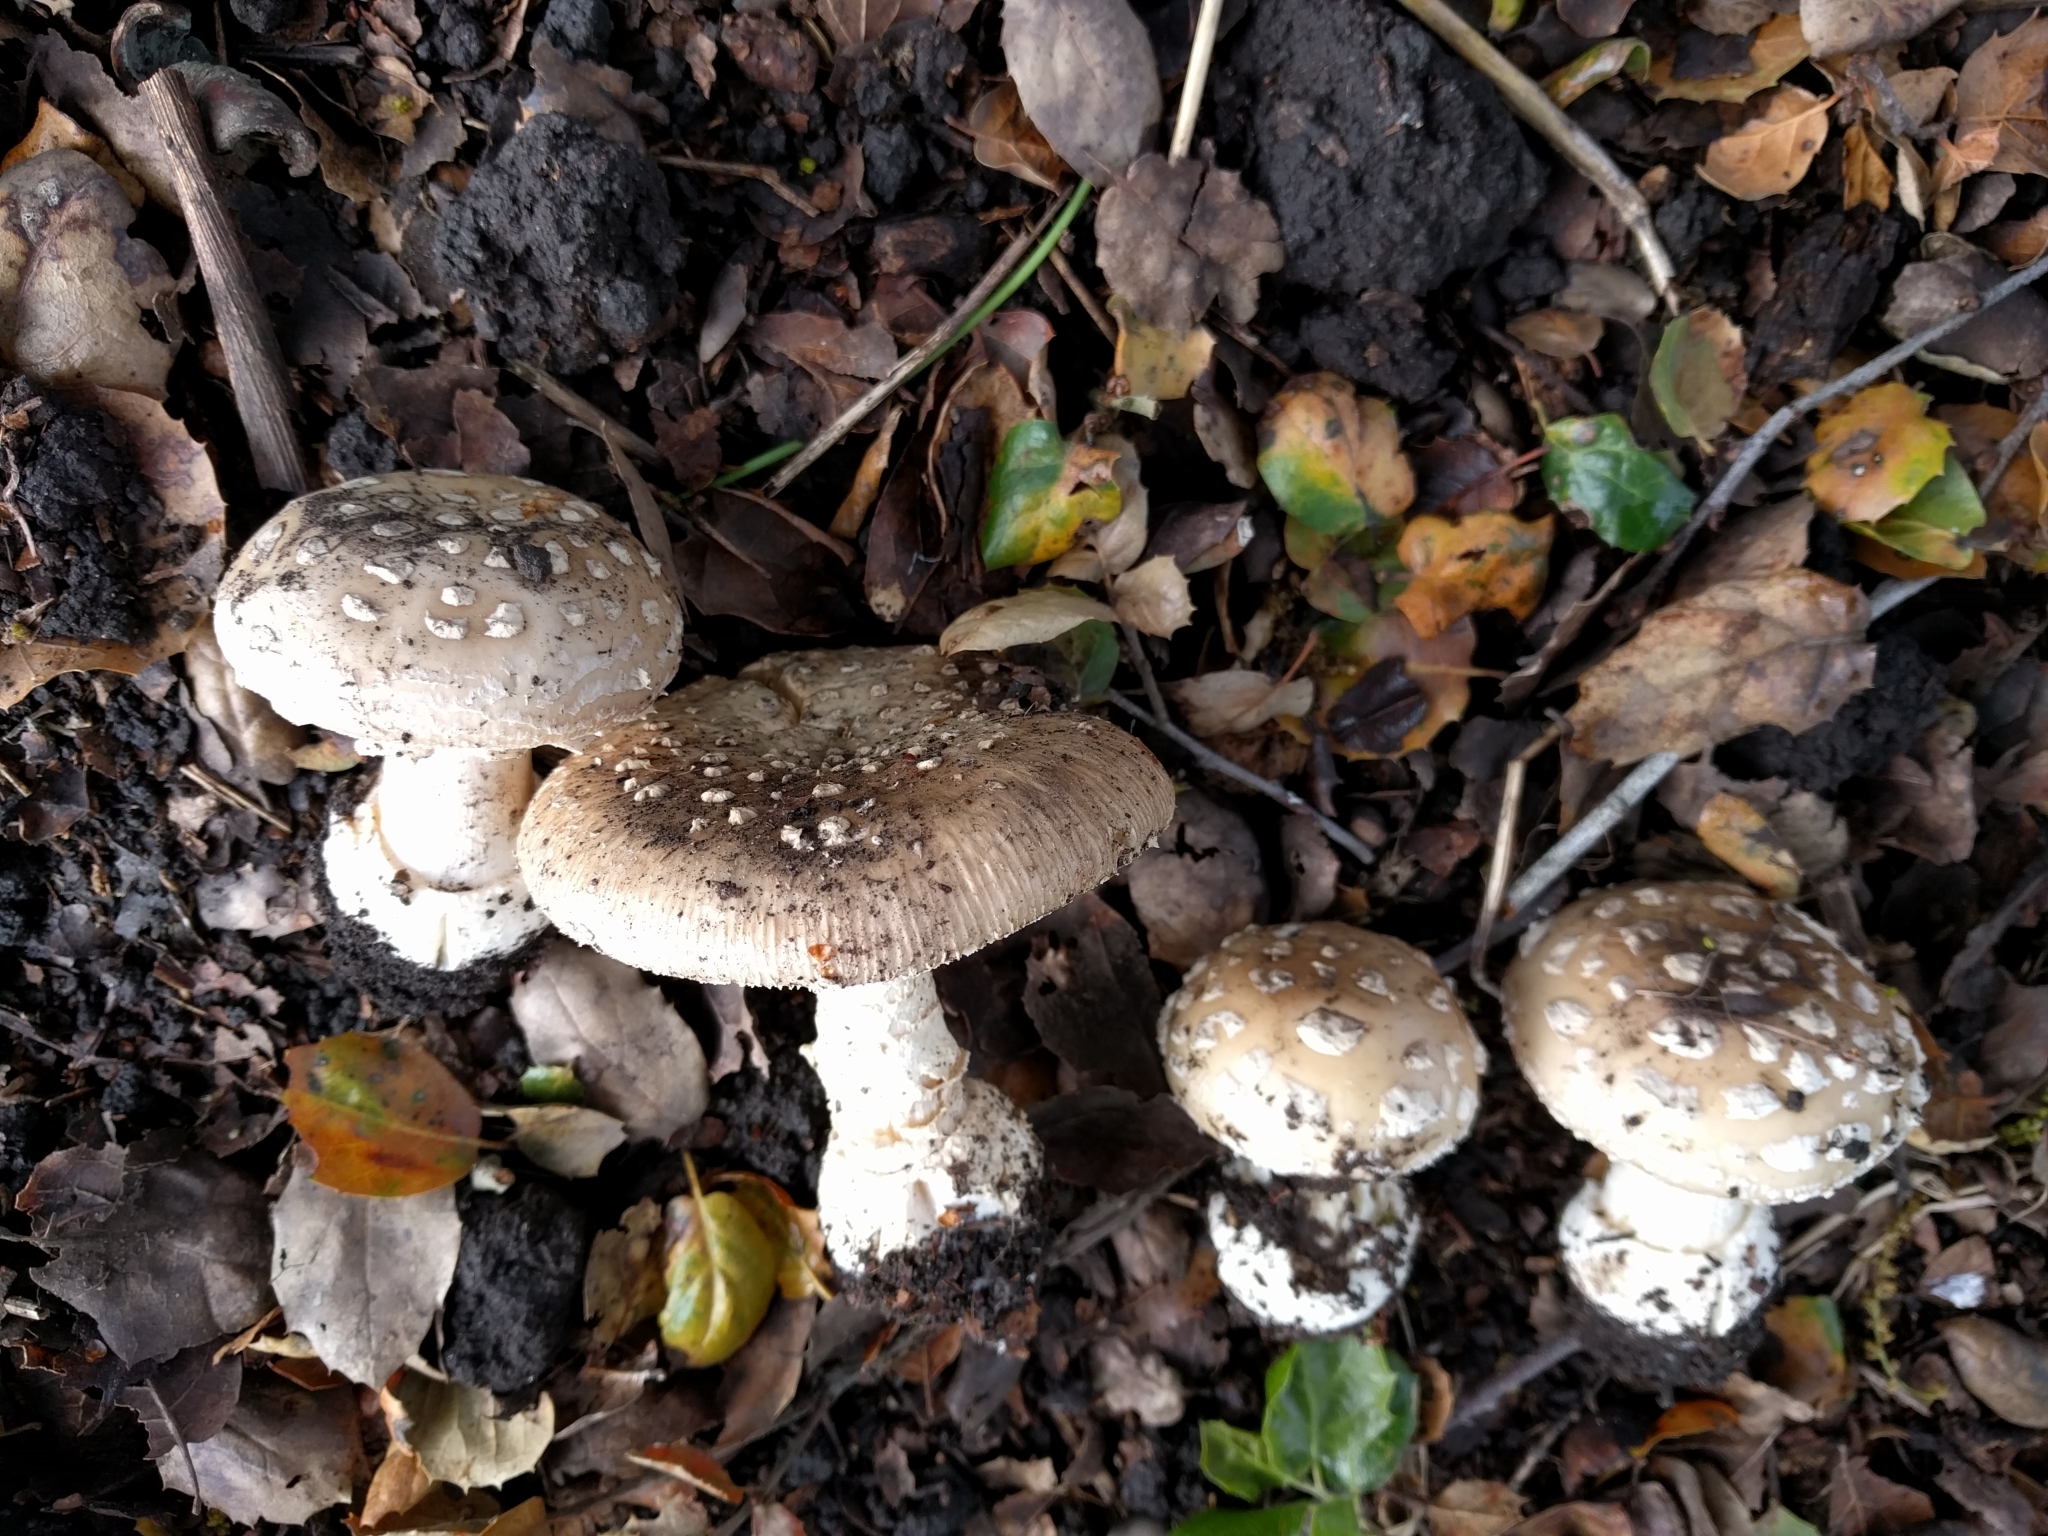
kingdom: Fungi
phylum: Basidiomycota
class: Agaricomycetes
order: Agaricales
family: Amanitaceae
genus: Amanita
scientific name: Amanita pantherina
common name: Panthercap
